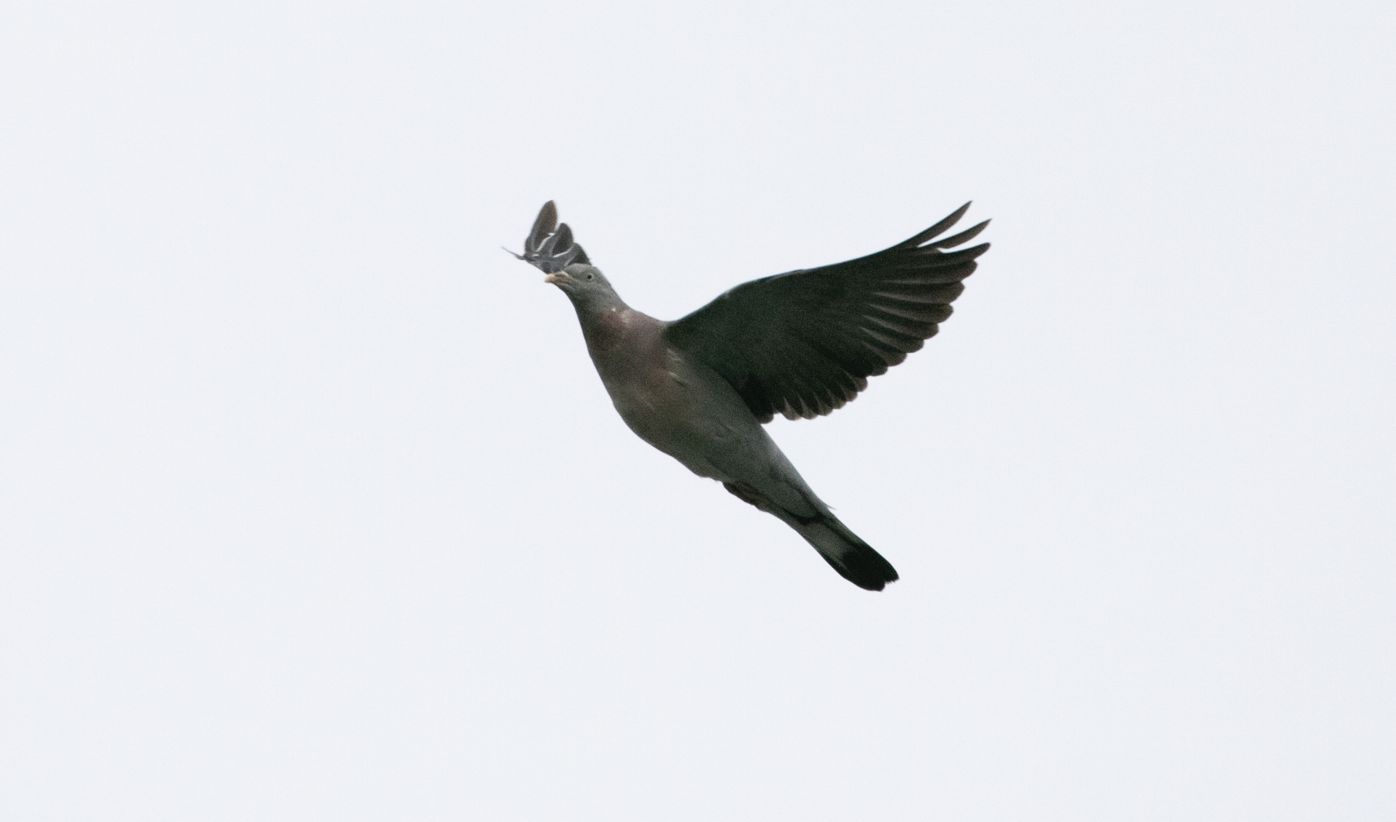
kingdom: Animalia
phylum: Chordata
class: Aves
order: Columbiformes
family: Columbidae
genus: Columba
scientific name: Columba palumbus
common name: Common wood pigeon
